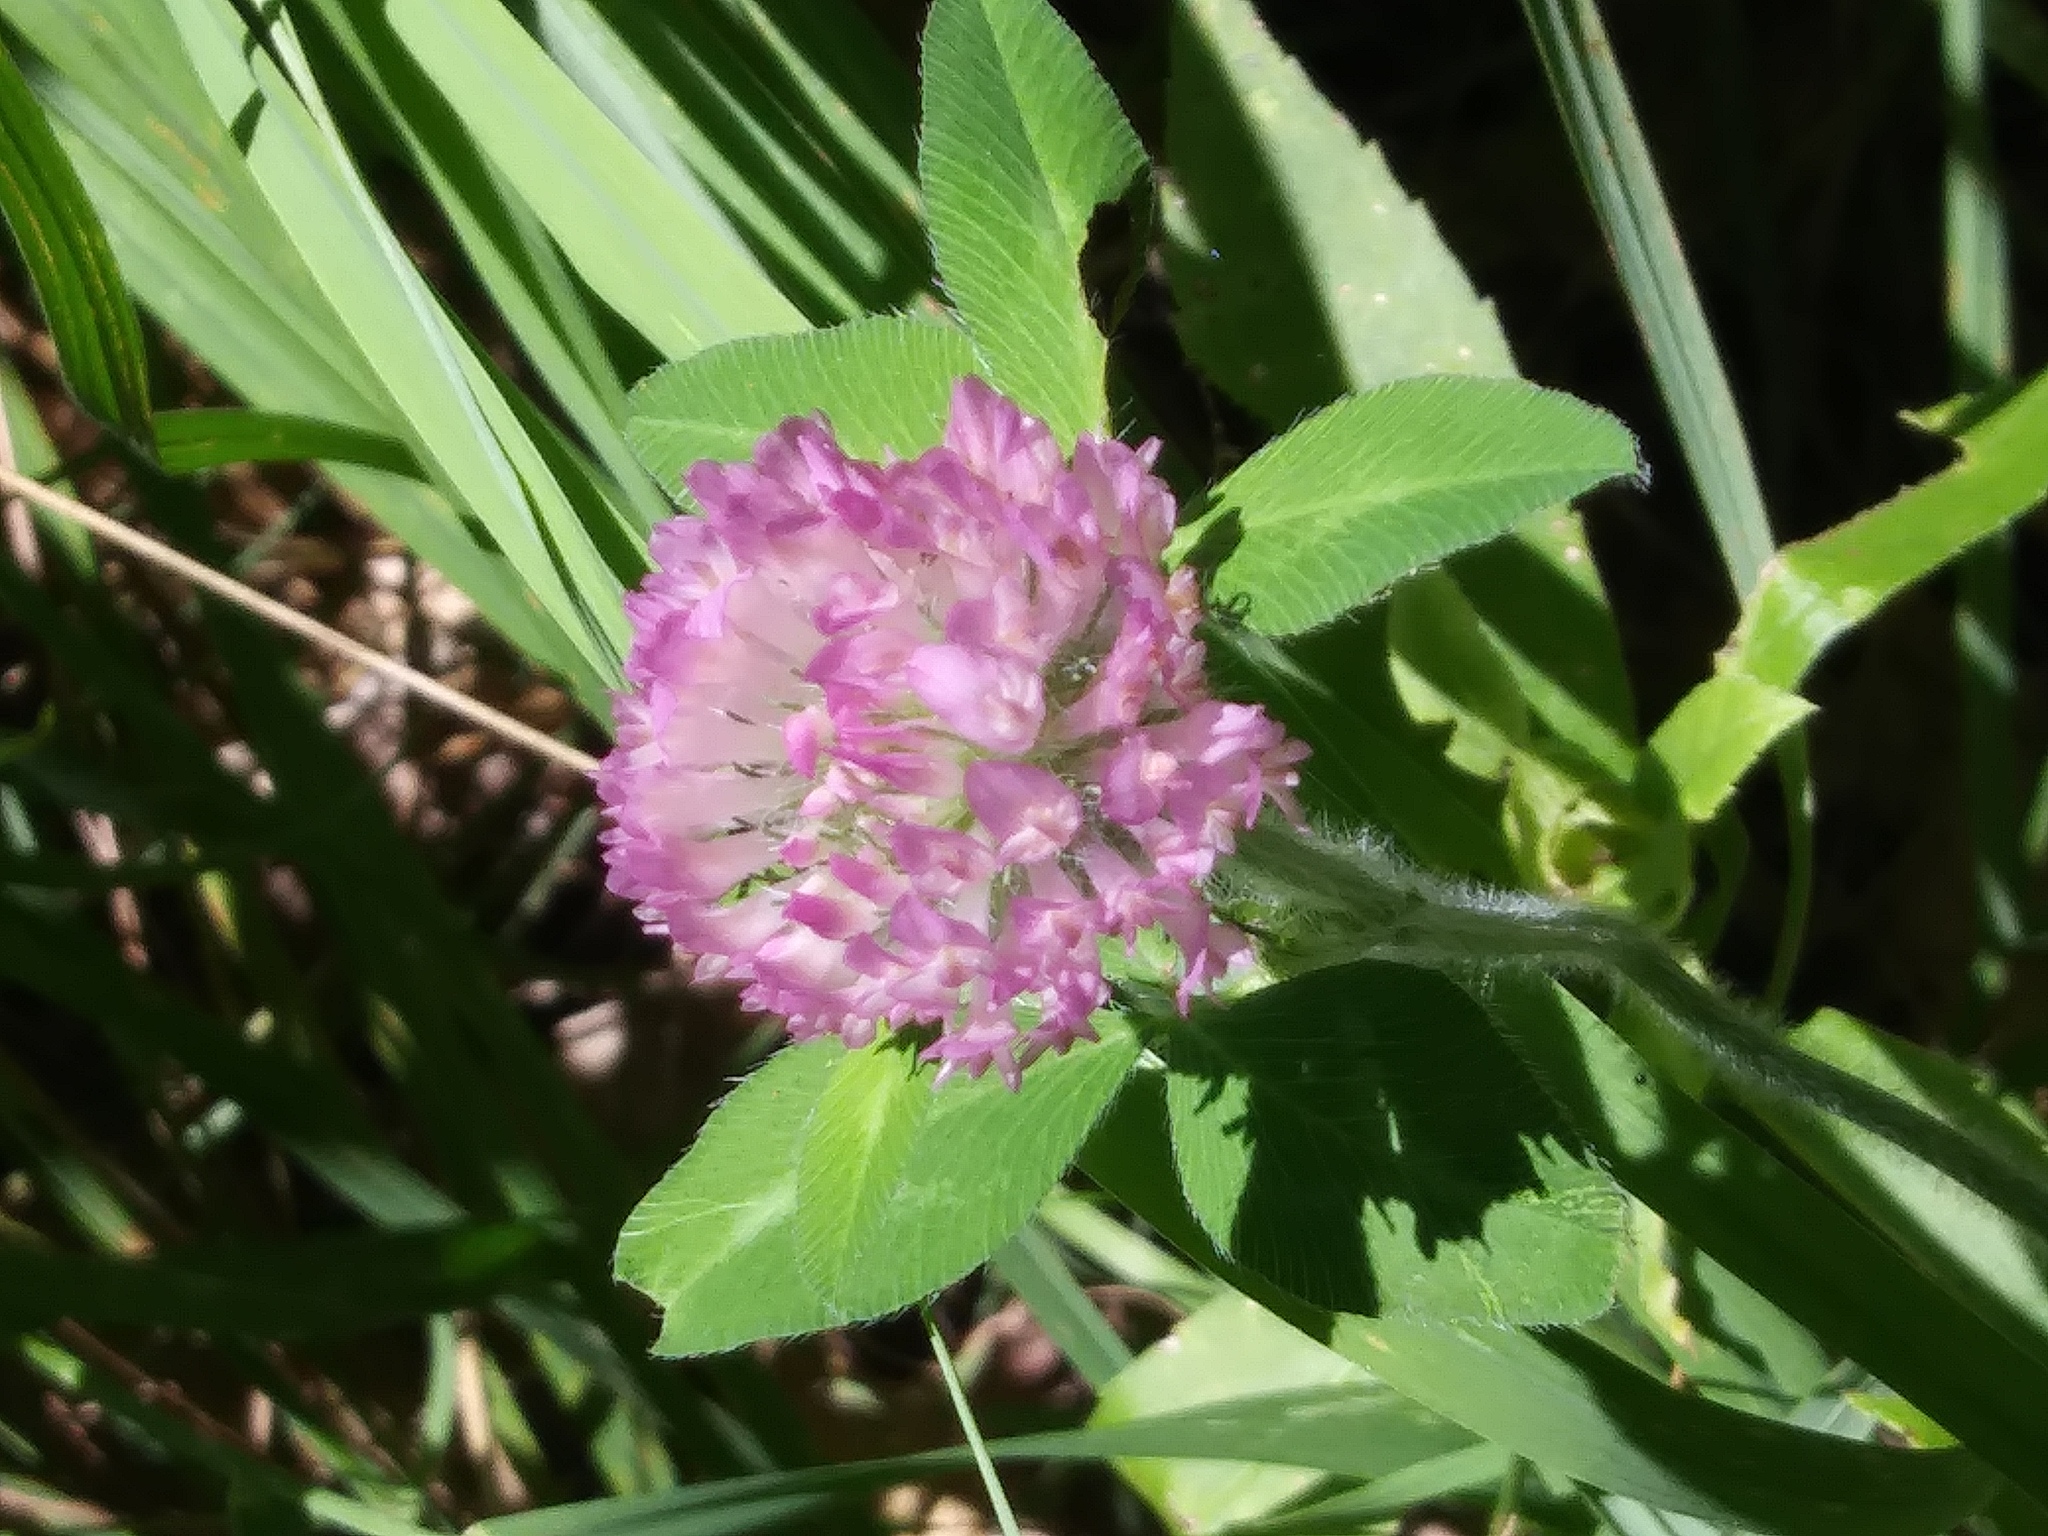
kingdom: Plantae
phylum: Tracheophyta
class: Magnoliopsida
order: Fabales
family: Fabaceae
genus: Trifolium
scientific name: Trifolium pratense
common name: Red clover
